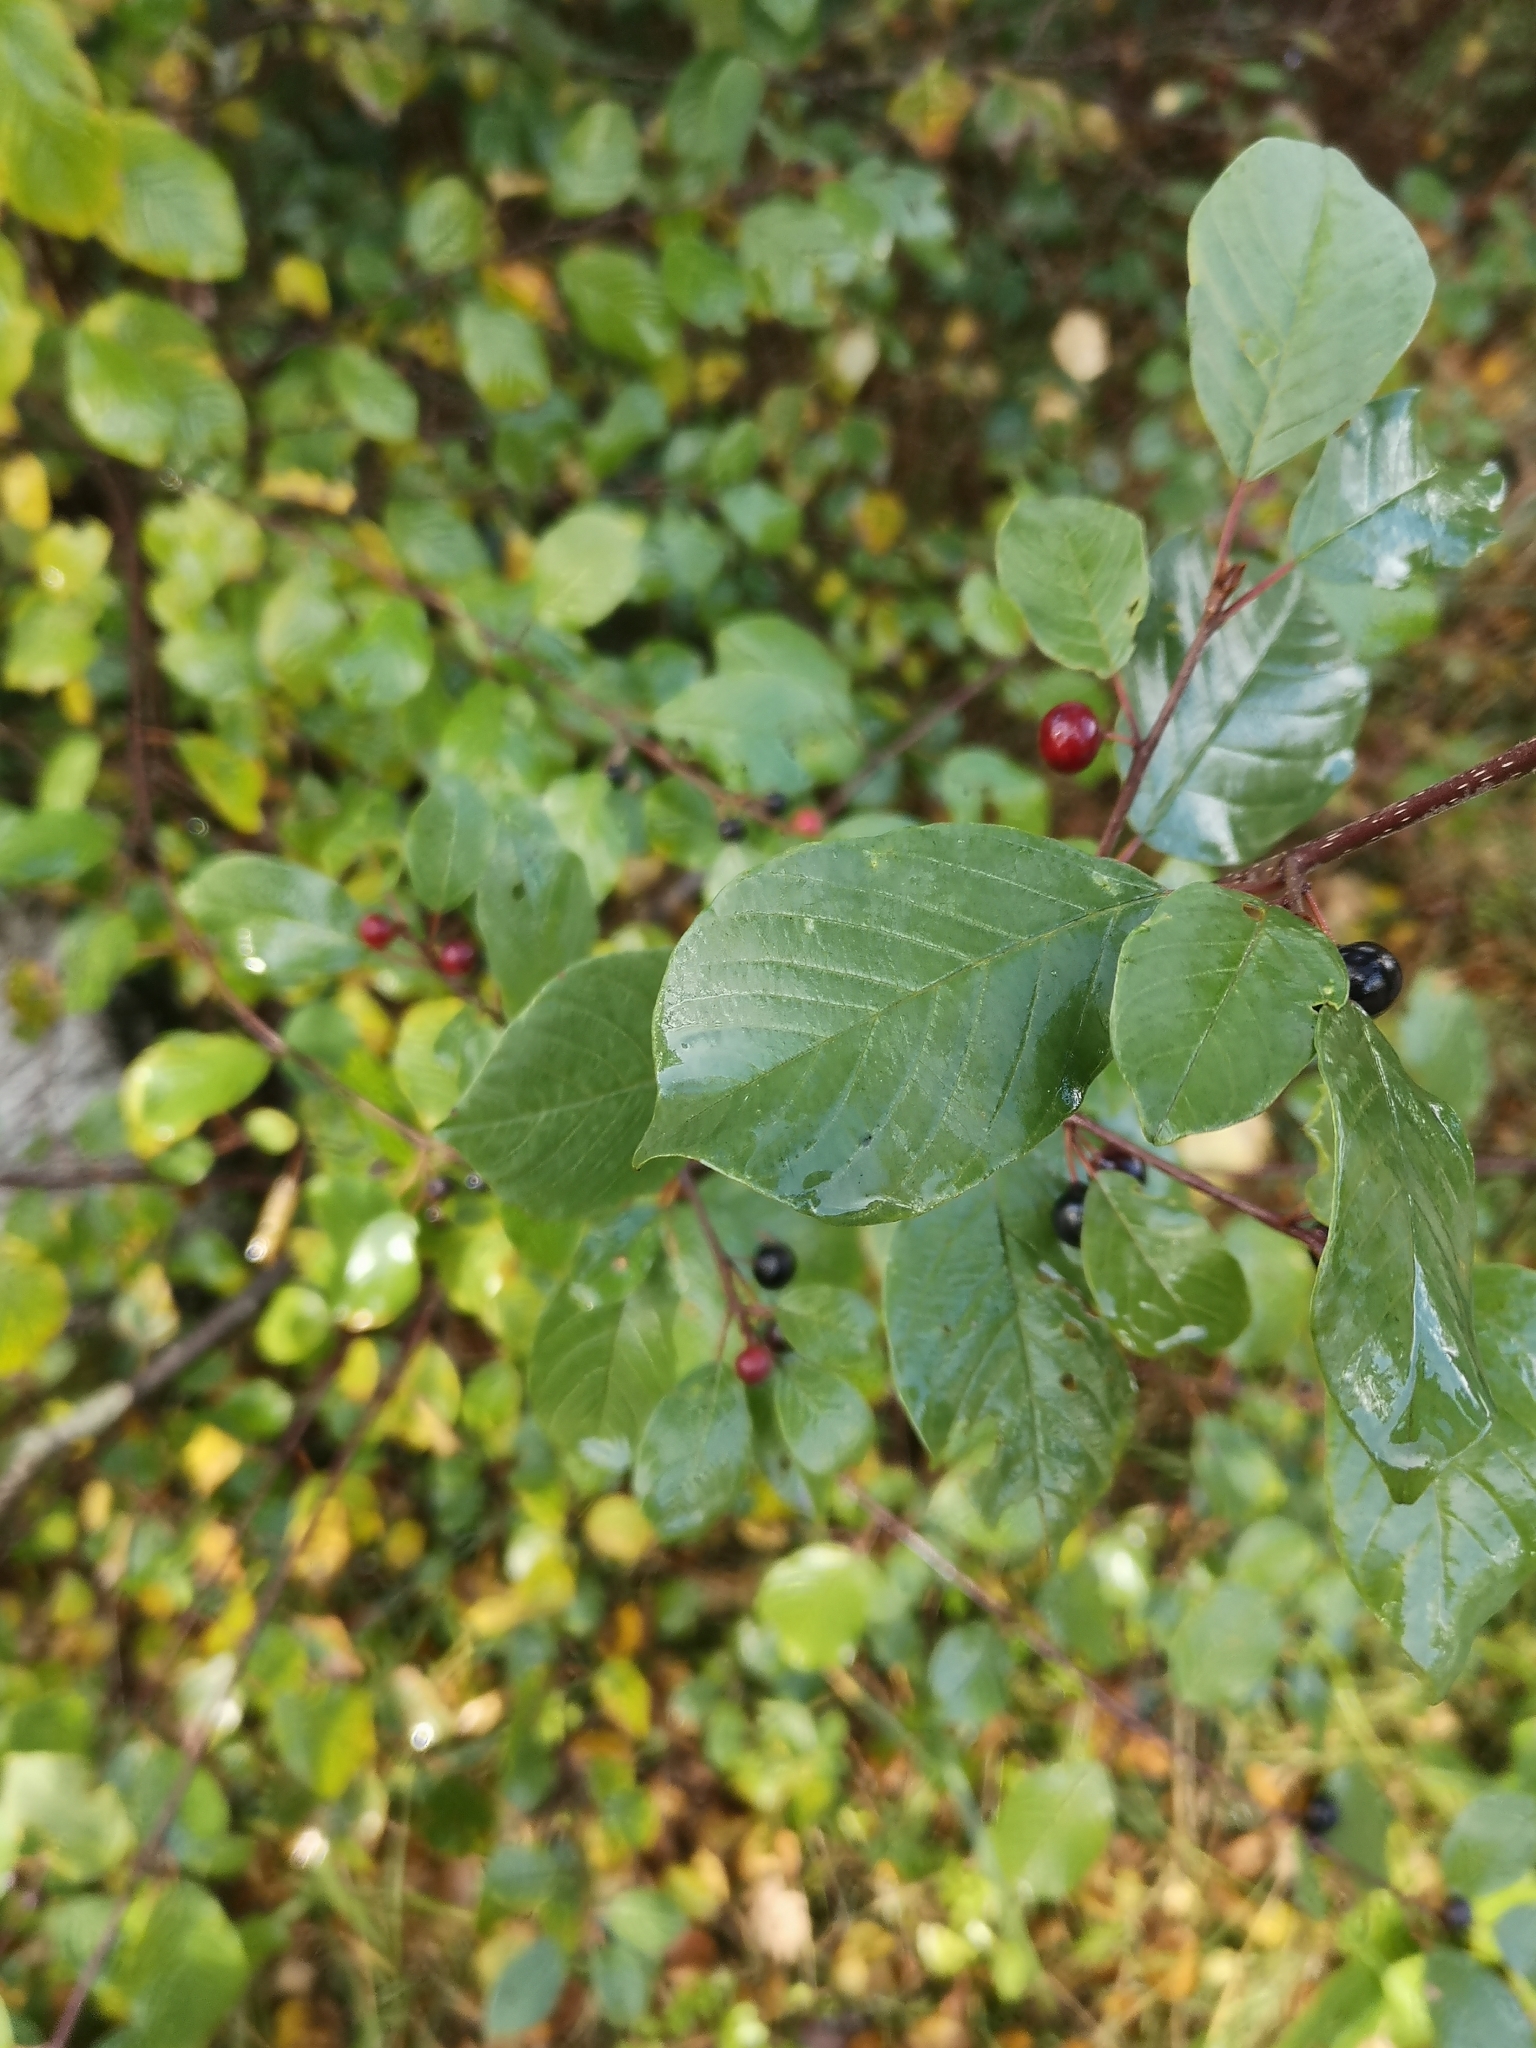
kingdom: Plantae
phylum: Tracheophyta
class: Magnoliopsida
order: Rosales
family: Rhamnaceae
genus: Frangula
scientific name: Frangula alnus
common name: Alder buckthorn
